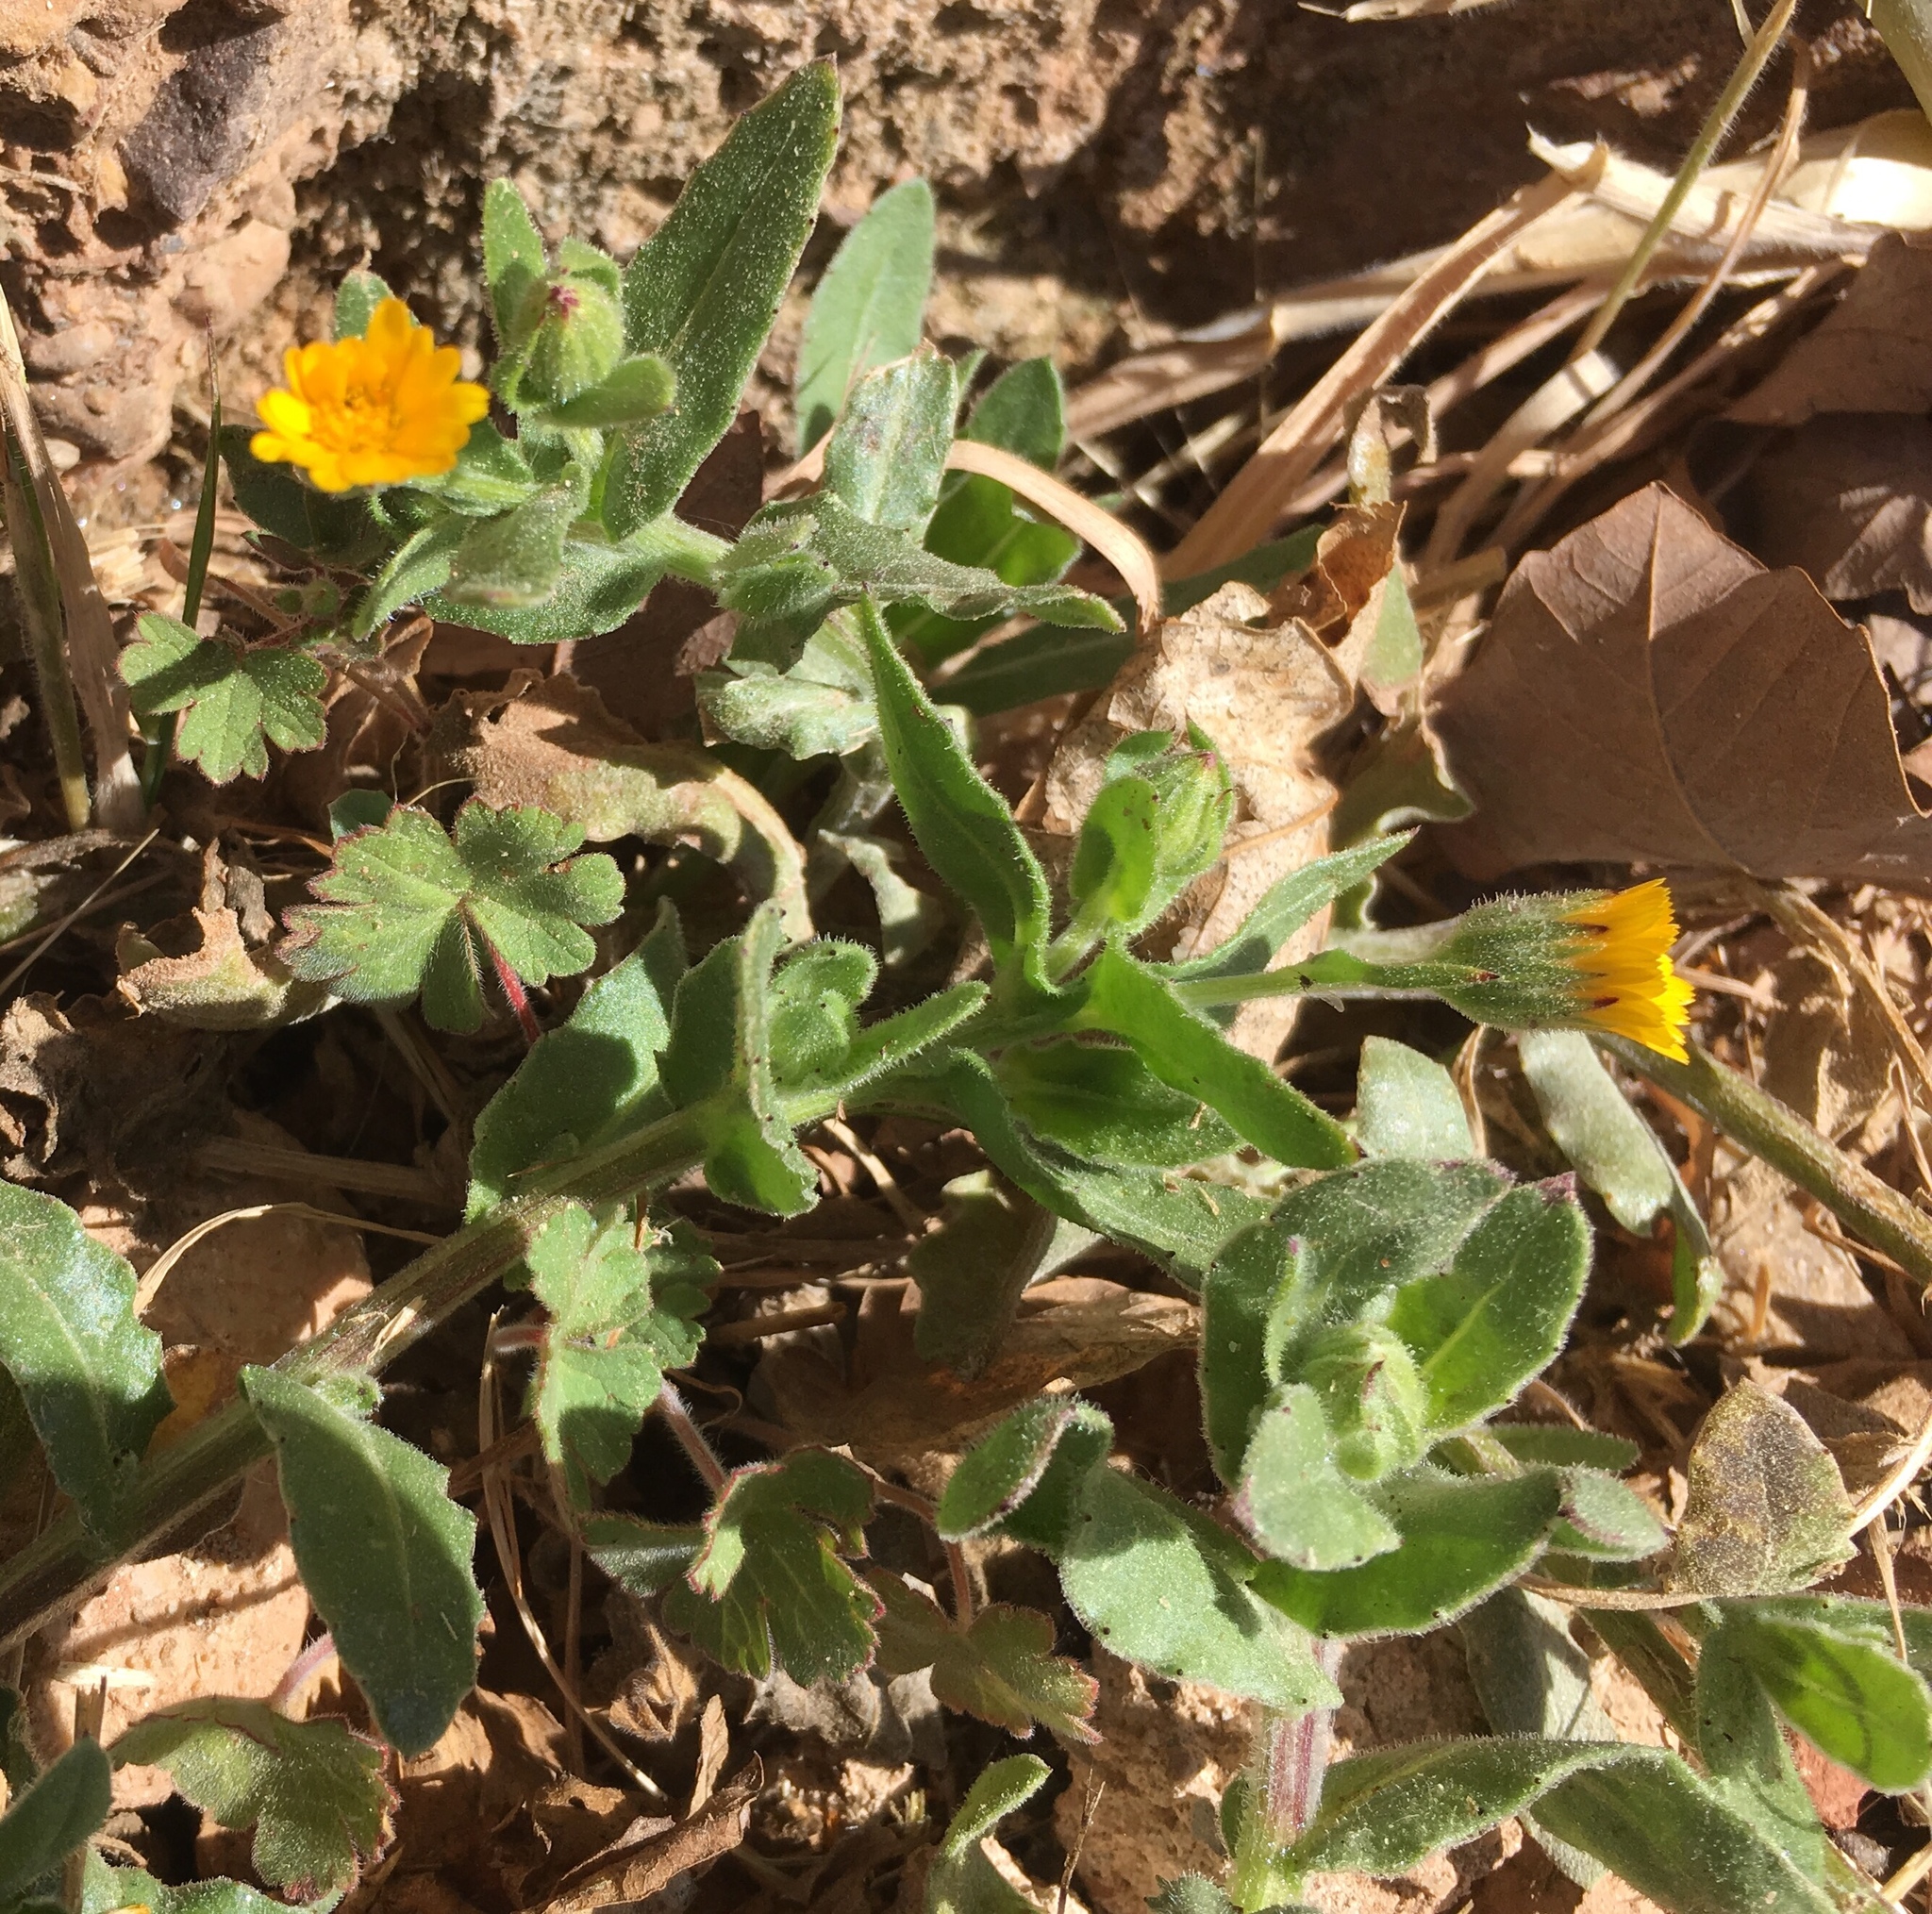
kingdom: Plantae
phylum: Tracheophyta
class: Magnoliopsida
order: Asterales
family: Asteraceae
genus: Calendula
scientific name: Calendula arvensis
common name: Field marigold
